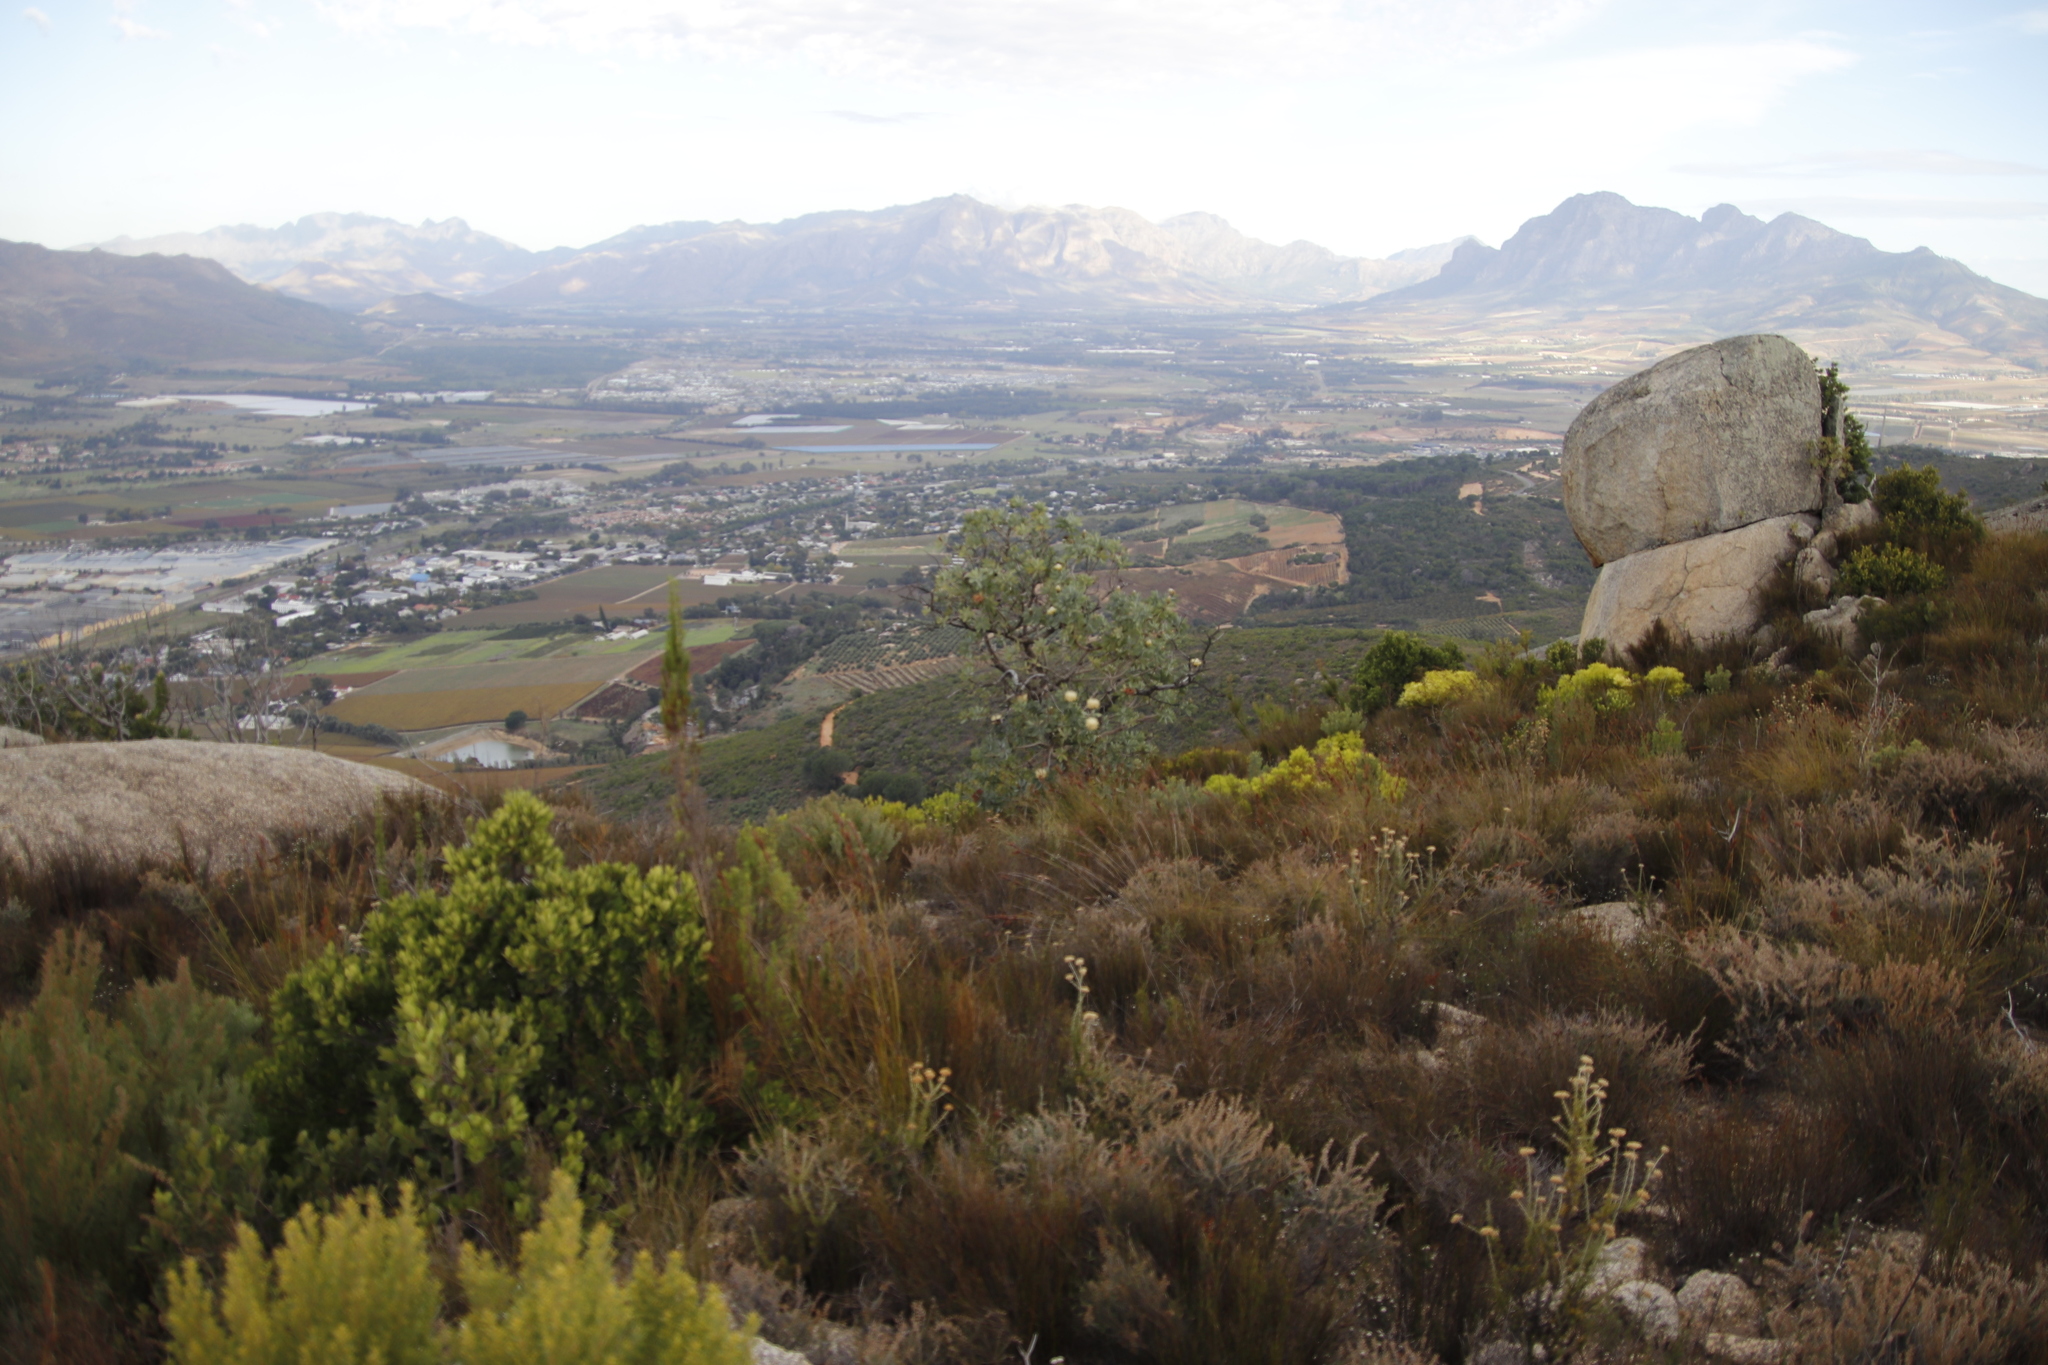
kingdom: Plantae
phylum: Tracheophyta
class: Magnoliopsida
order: Proteales
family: Proteaceae
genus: Protea
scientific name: Protea nitida
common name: Tree protea
